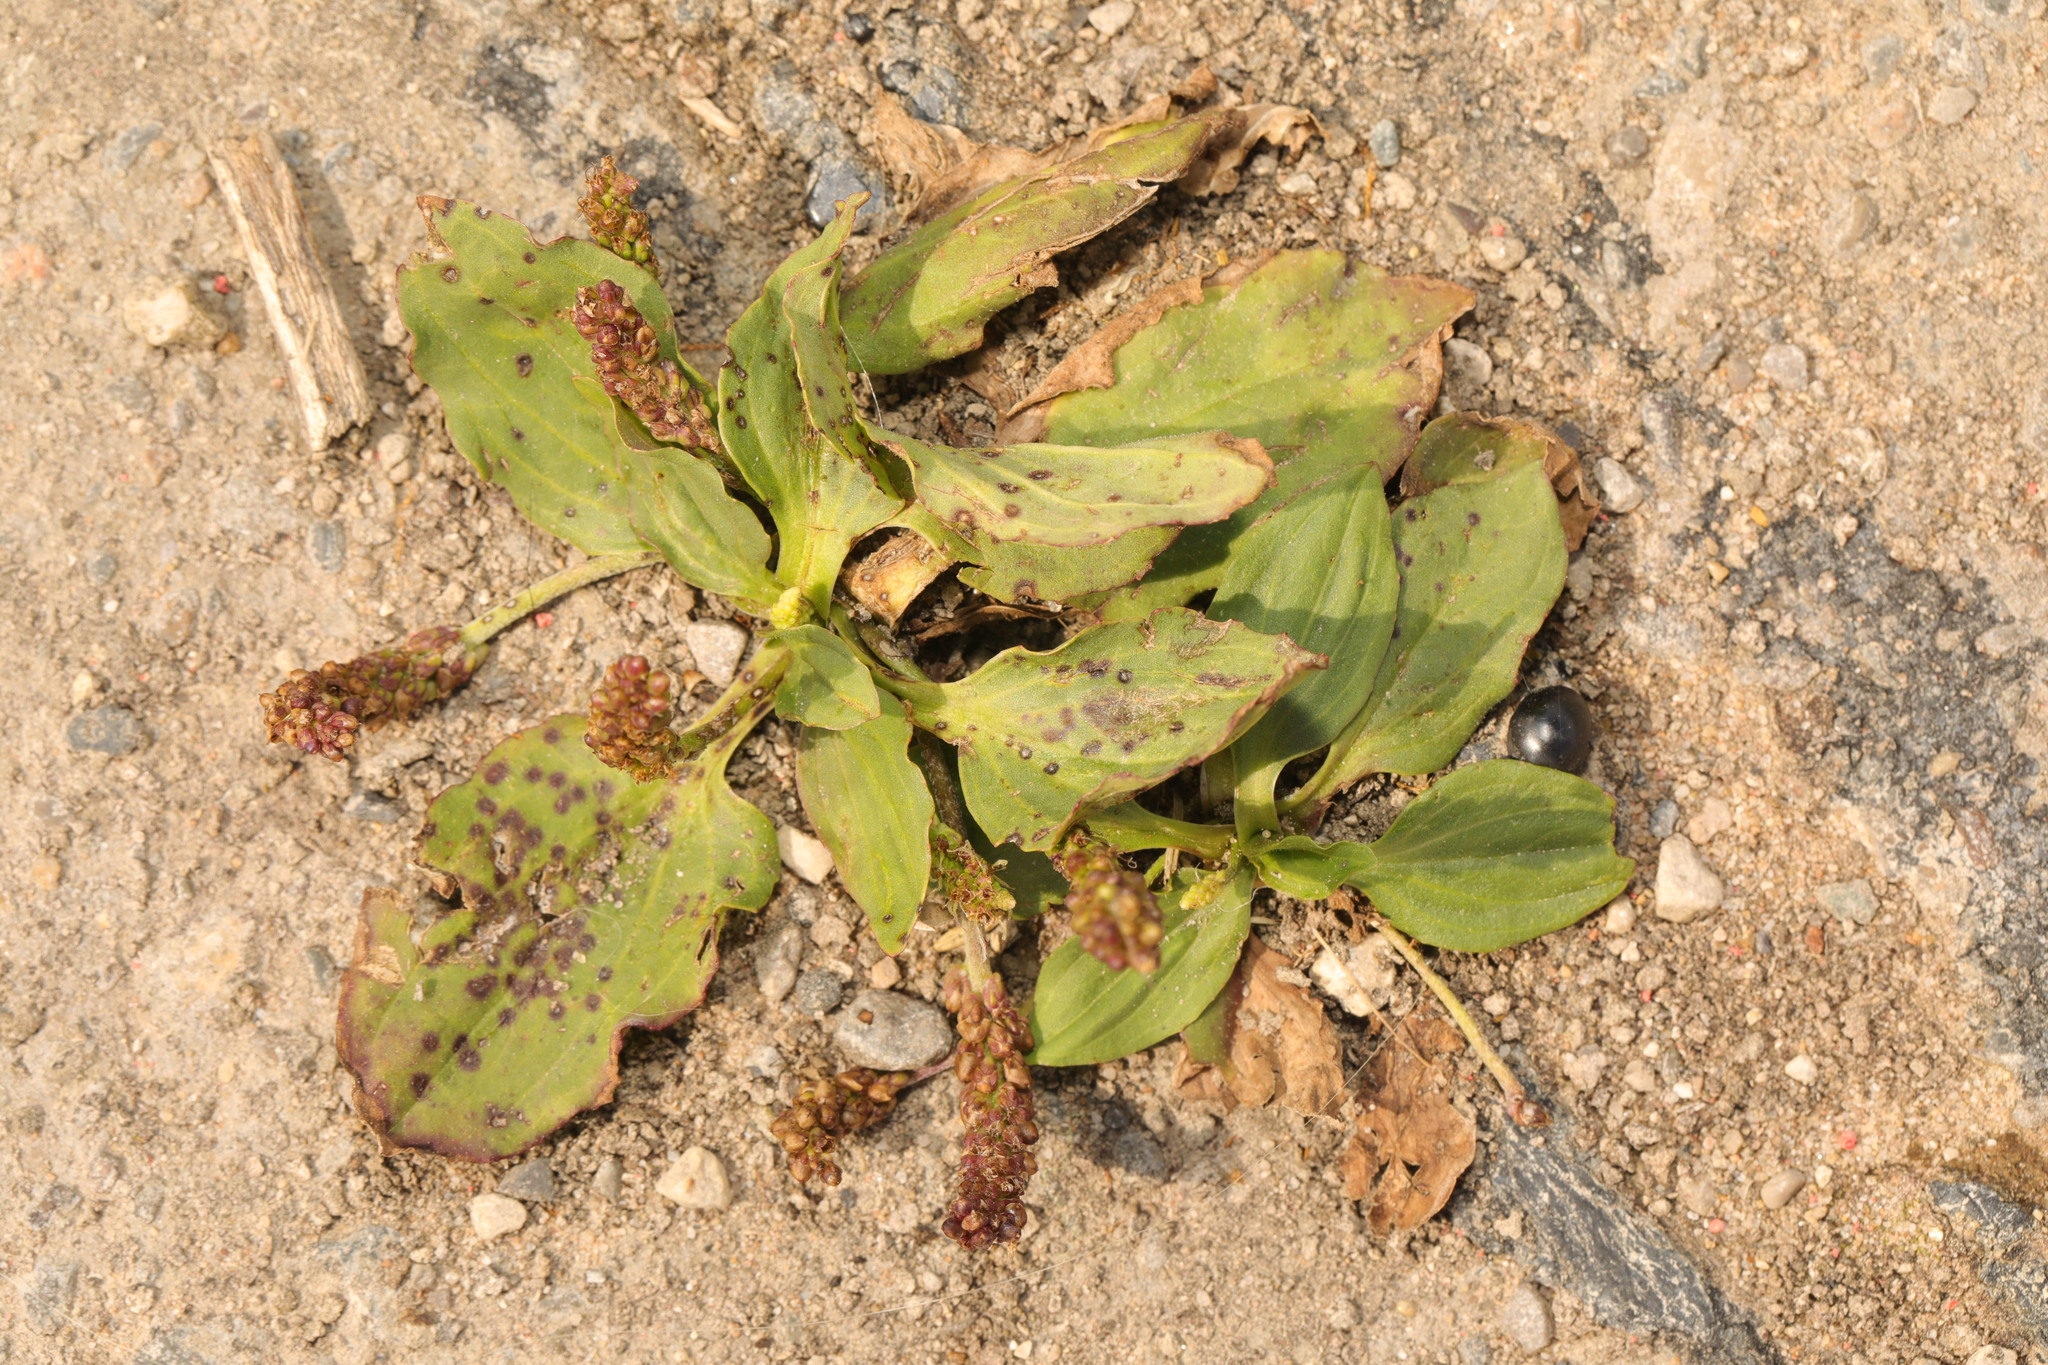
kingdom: Plantae
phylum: Tracheophyta
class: Magnoliopsida
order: Lamiales
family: Plantaginaceae
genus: Plantago
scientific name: Plantago major
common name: Common plantain
